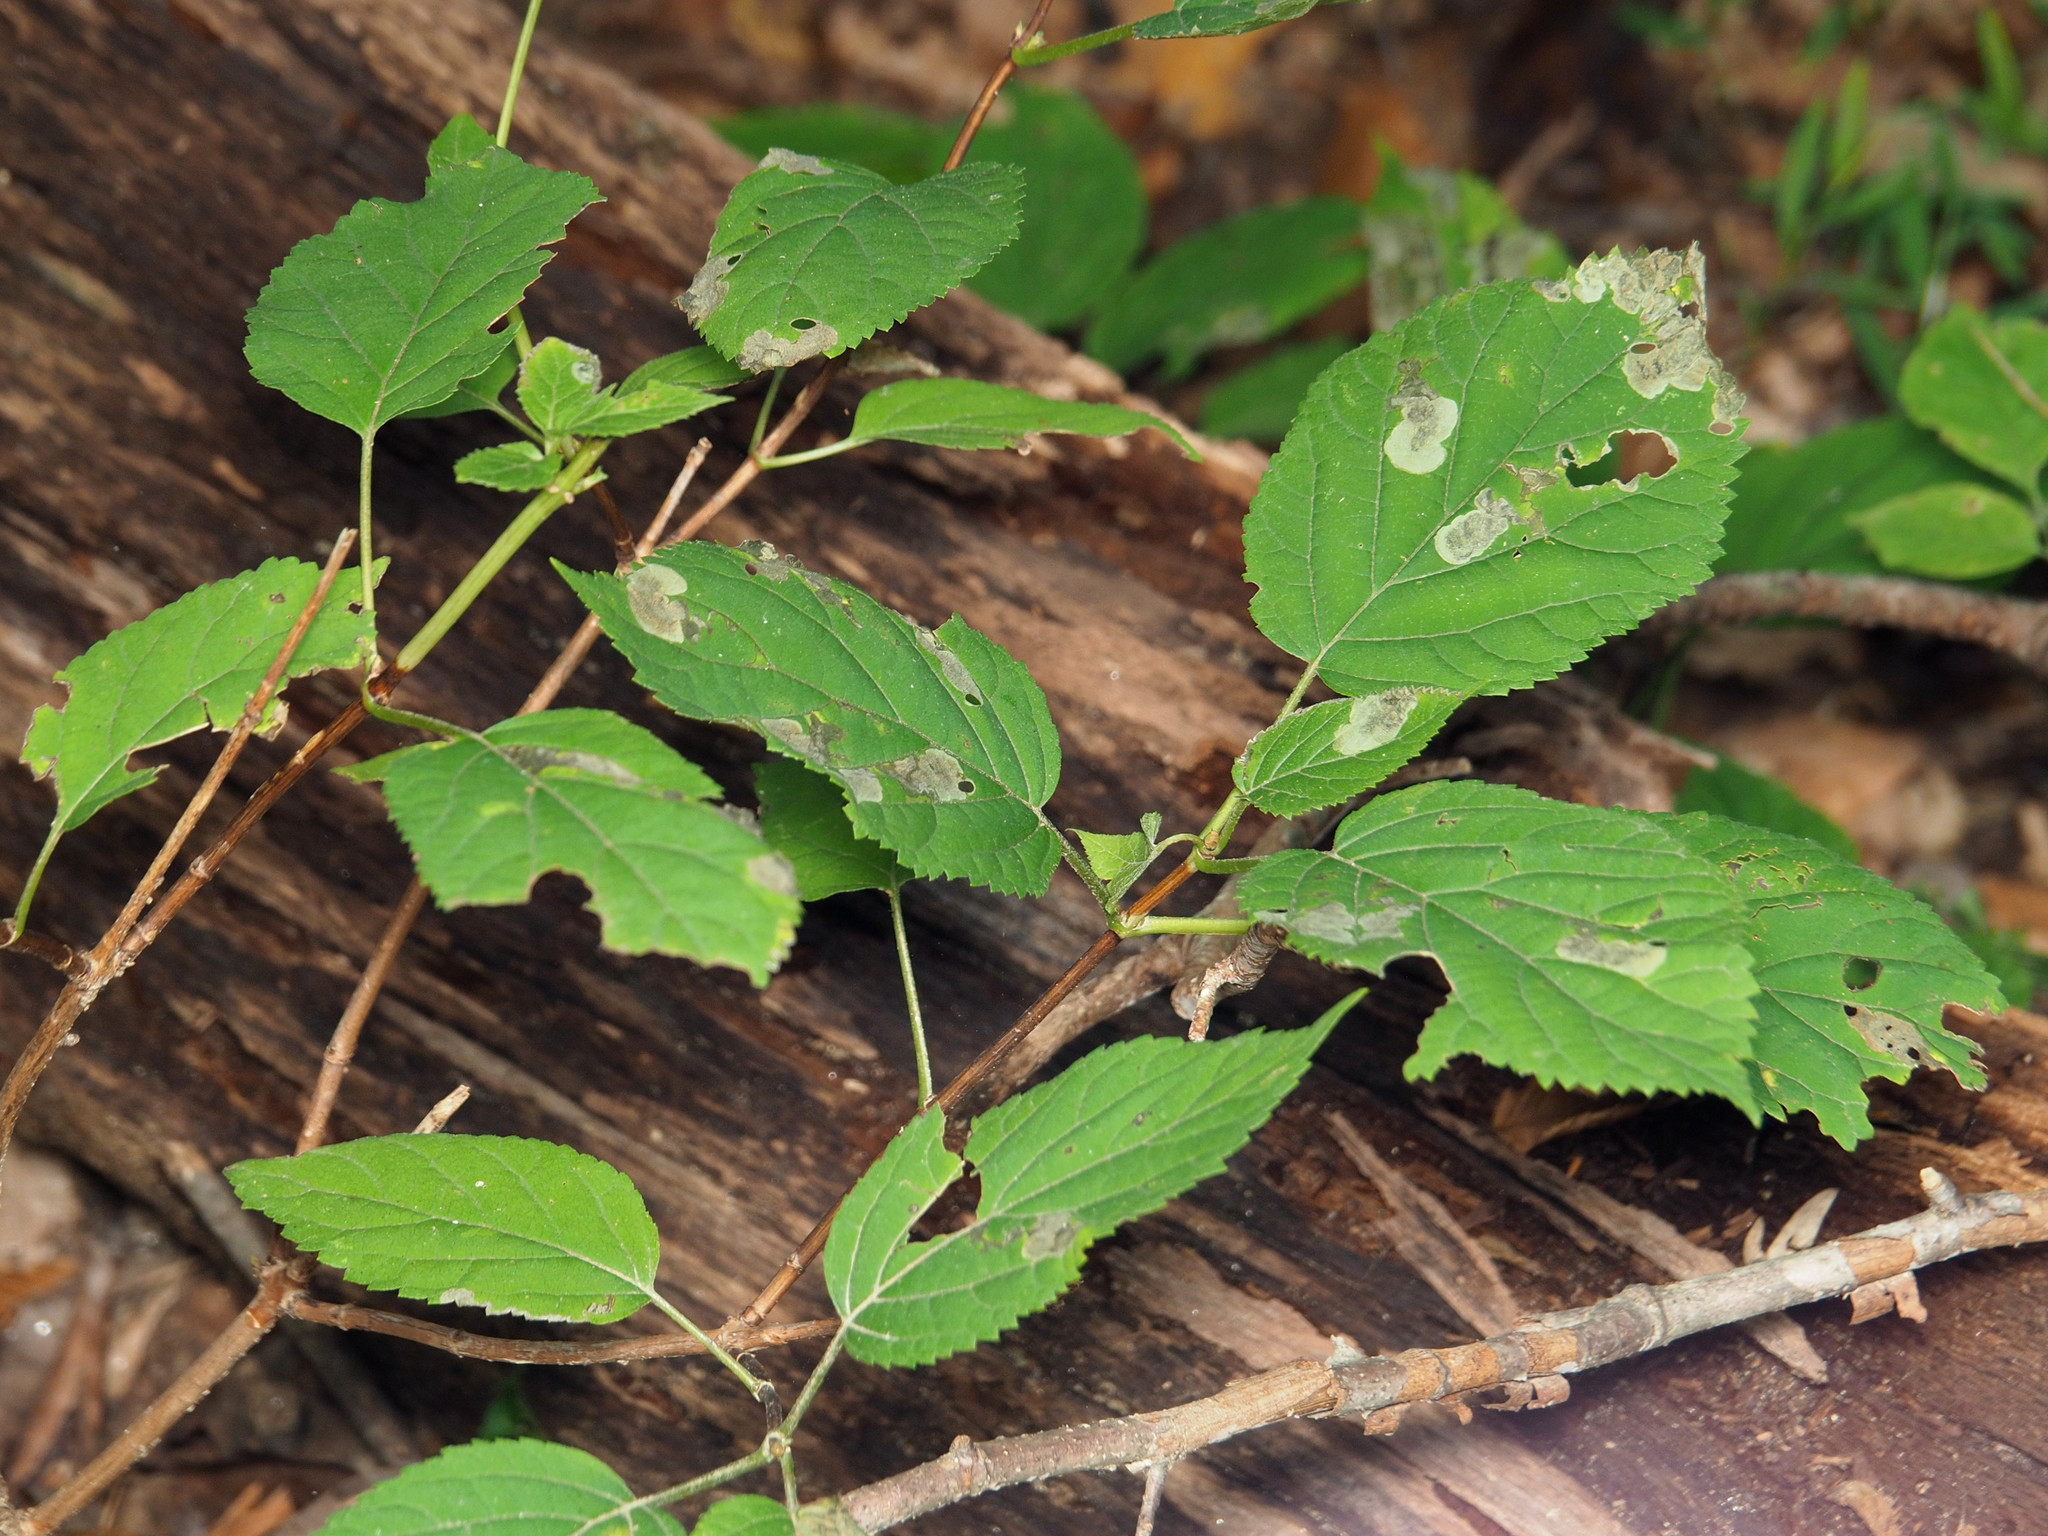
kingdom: Animalia
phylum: Arthropoda
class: Insecta
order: Lepidoptera
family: Heliozelidae
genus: Aspilanta
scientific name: Aspilanta hydrangaeella
